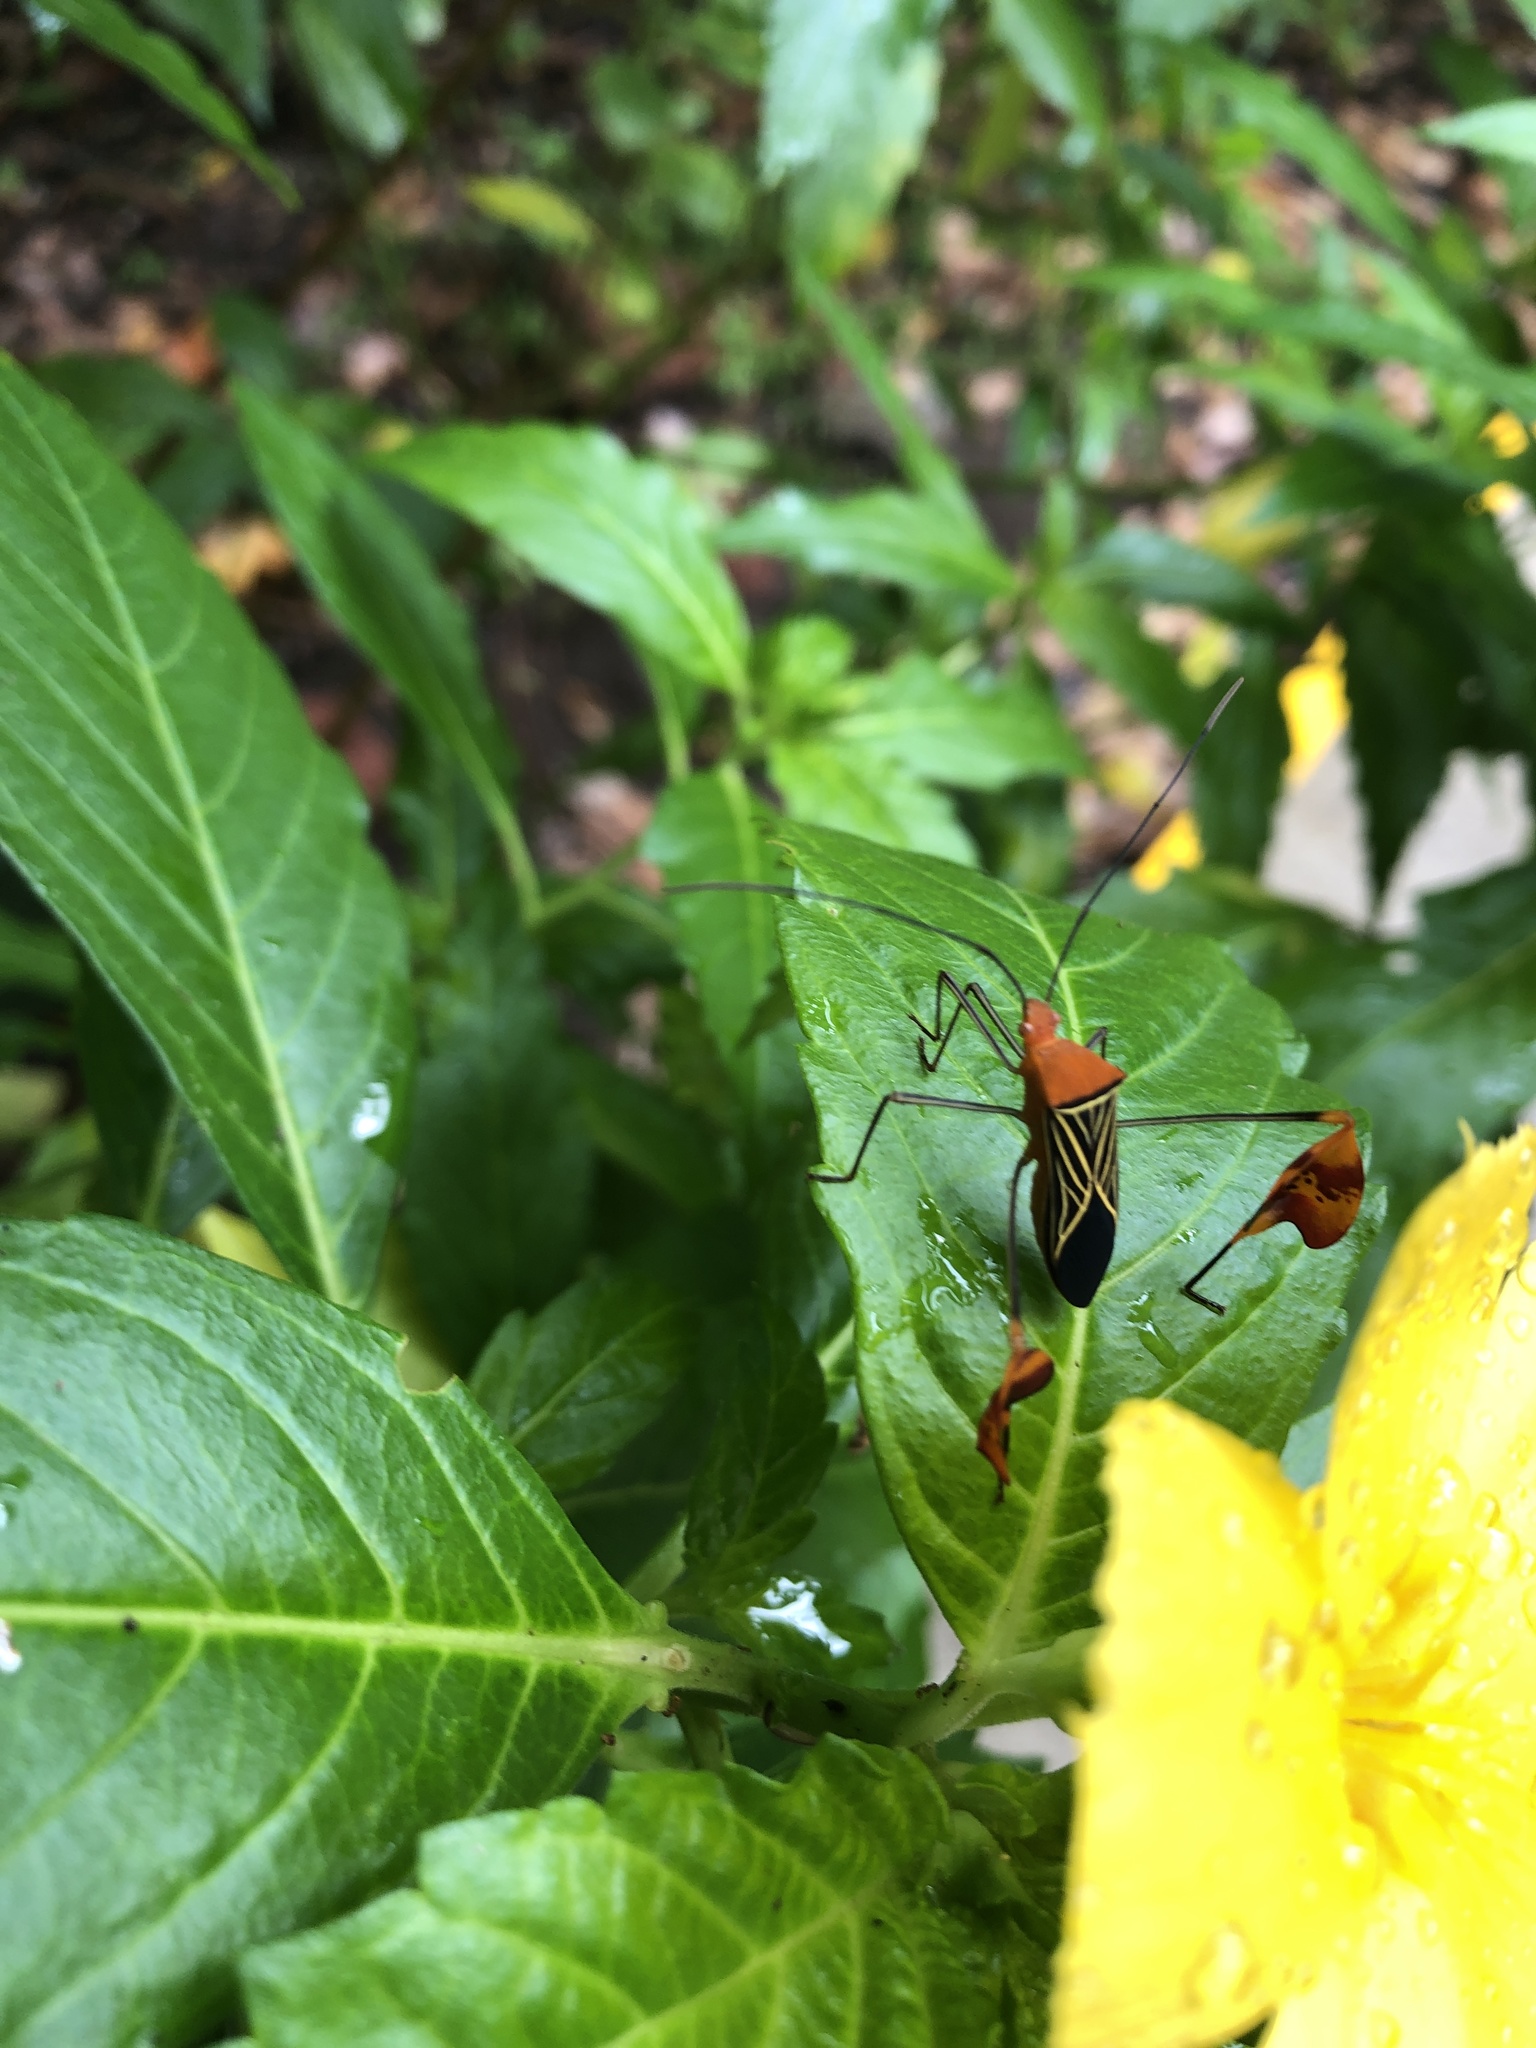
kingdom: Animalia
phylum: Arthropoda
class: Insecta
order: Hemiptera
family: Coreidae
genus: Bitta
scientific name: Bitta
